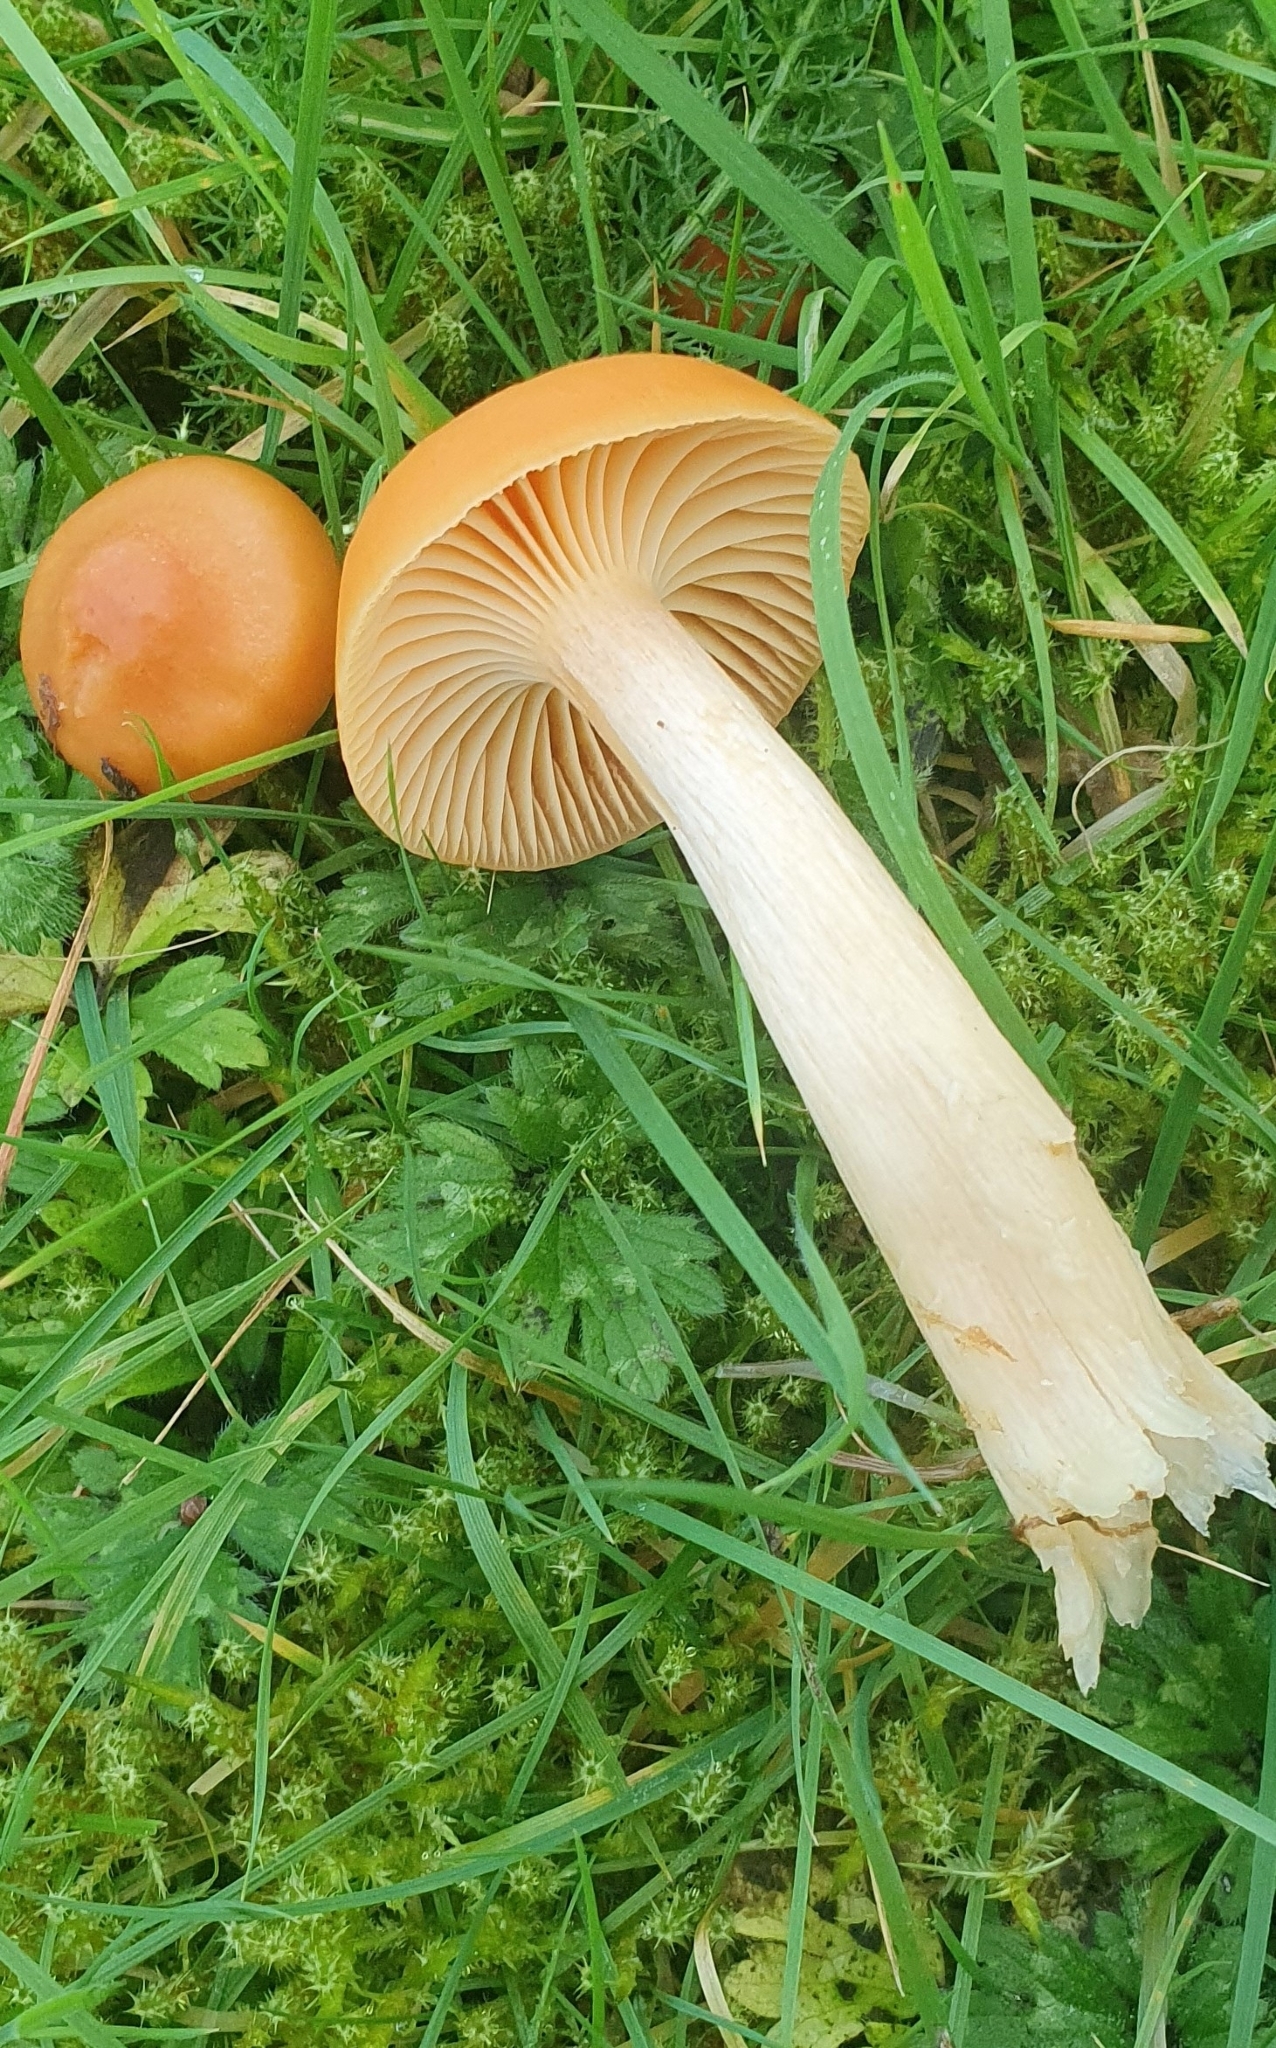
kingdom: Fungi
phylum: Basidiomycota
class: Agaricomycetes
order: Agaricales
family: Hygrophoraceae
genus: Cuphophyllus
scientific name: Cuphophyllus pratensis
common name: Meadow waxcap
